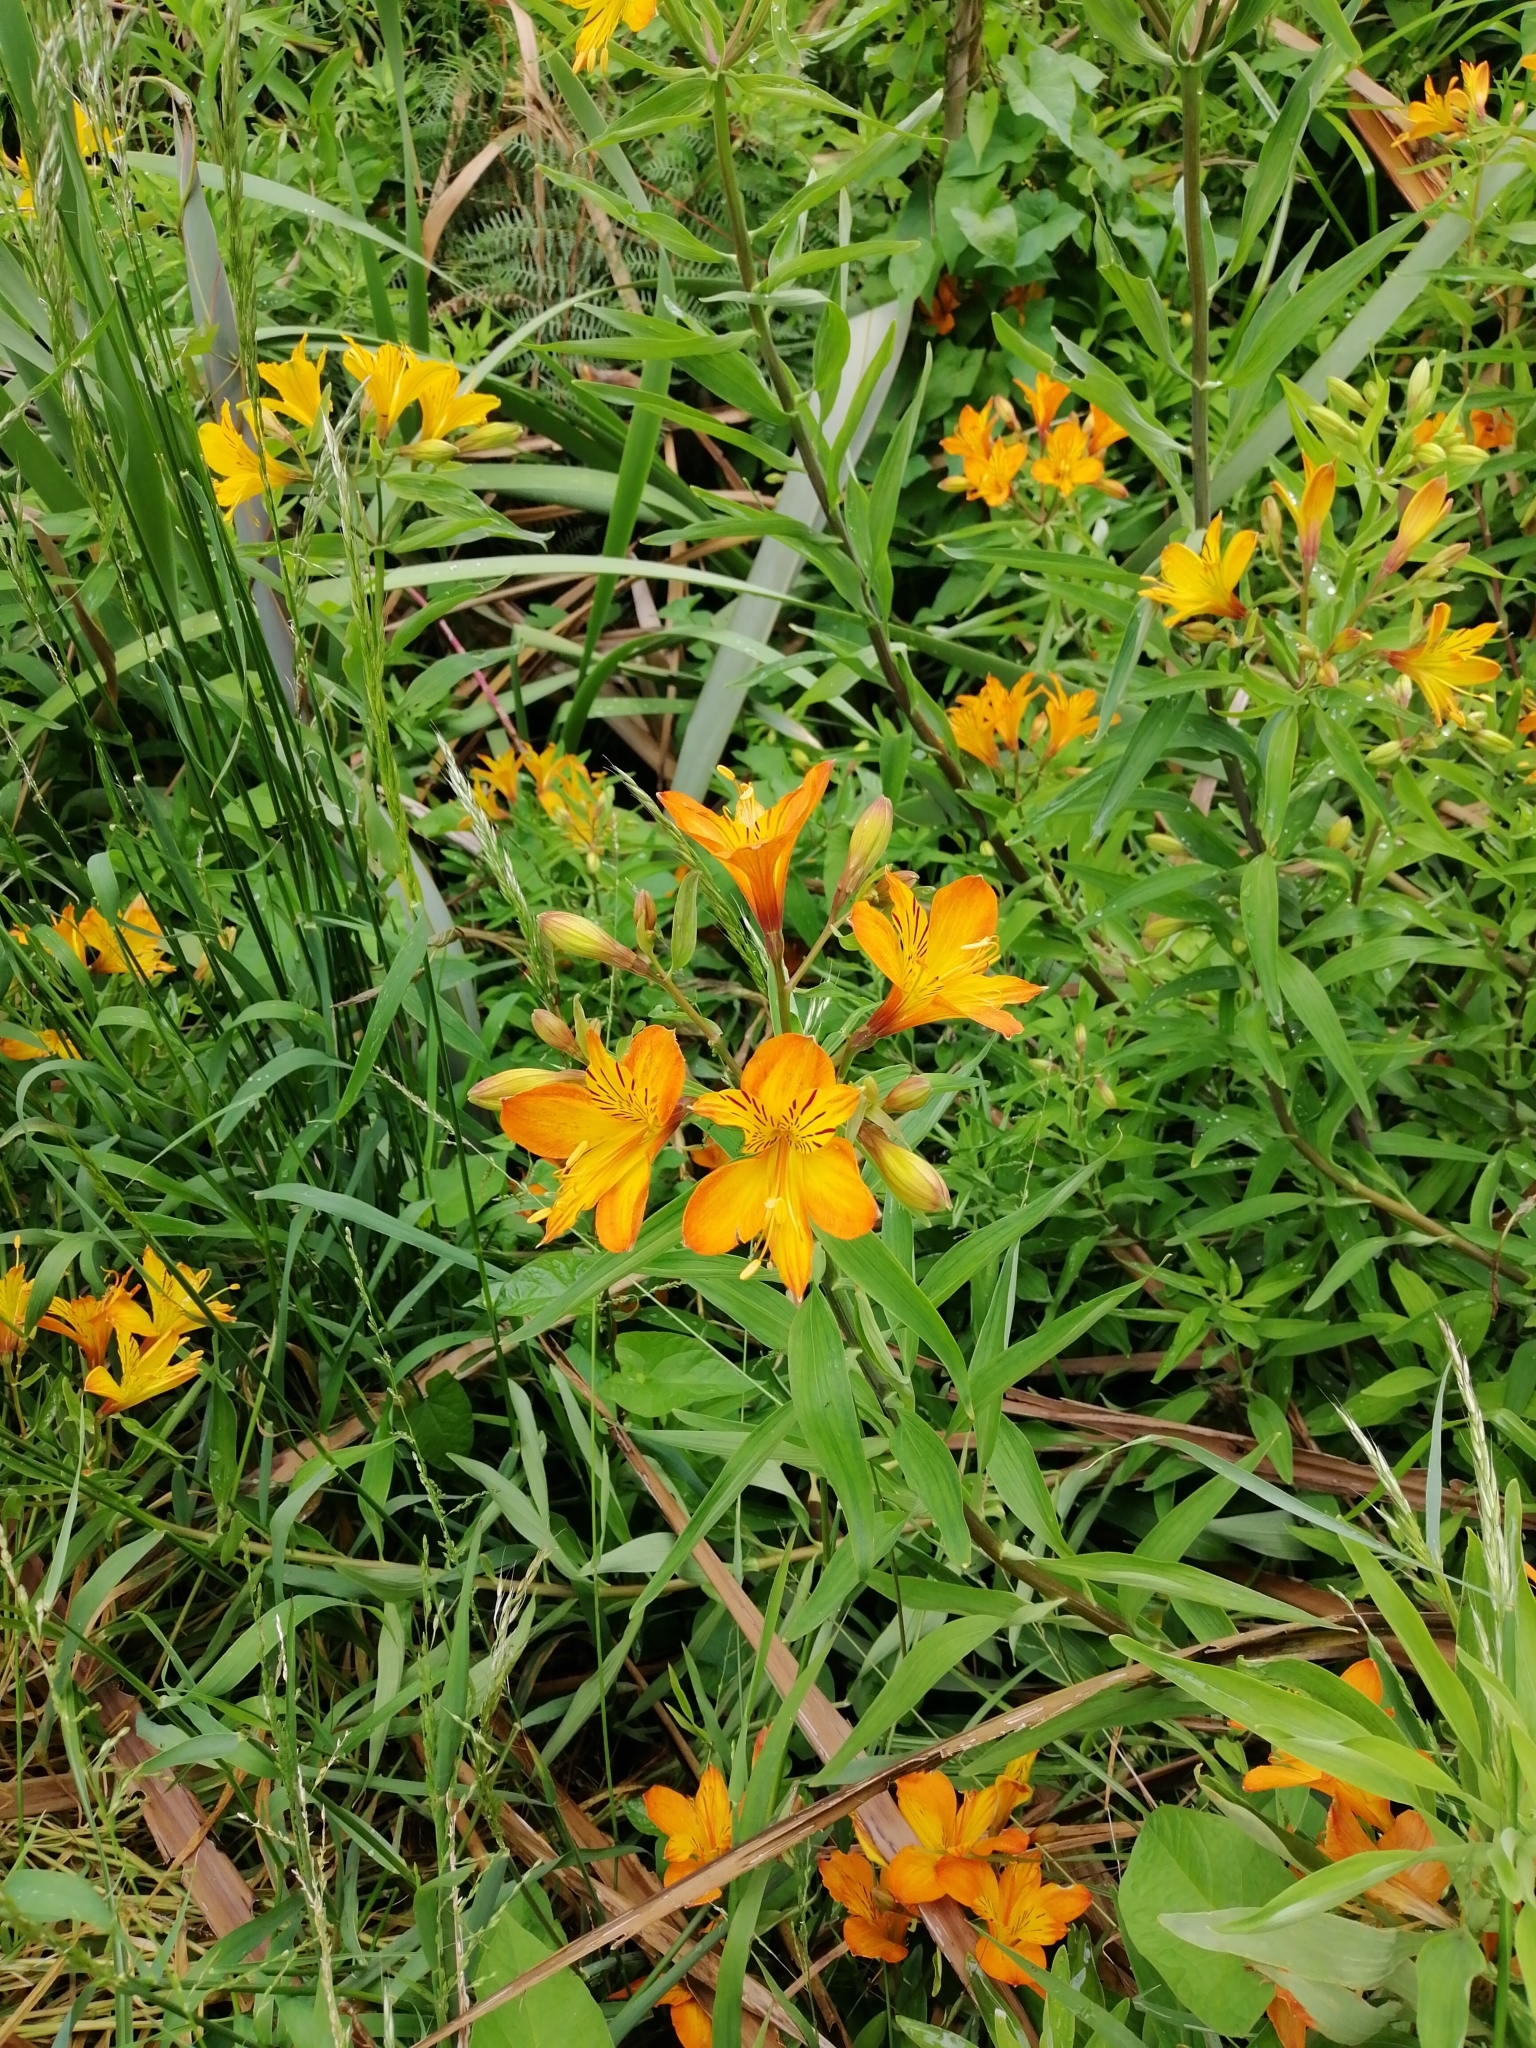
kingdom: Plantae
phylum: Tracheophyta
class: Liliopsida
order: Liliales
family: Alstroemeriaceae
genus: Alstroemeria
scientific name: Alstroemeria aurea
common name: Peruvian lily
